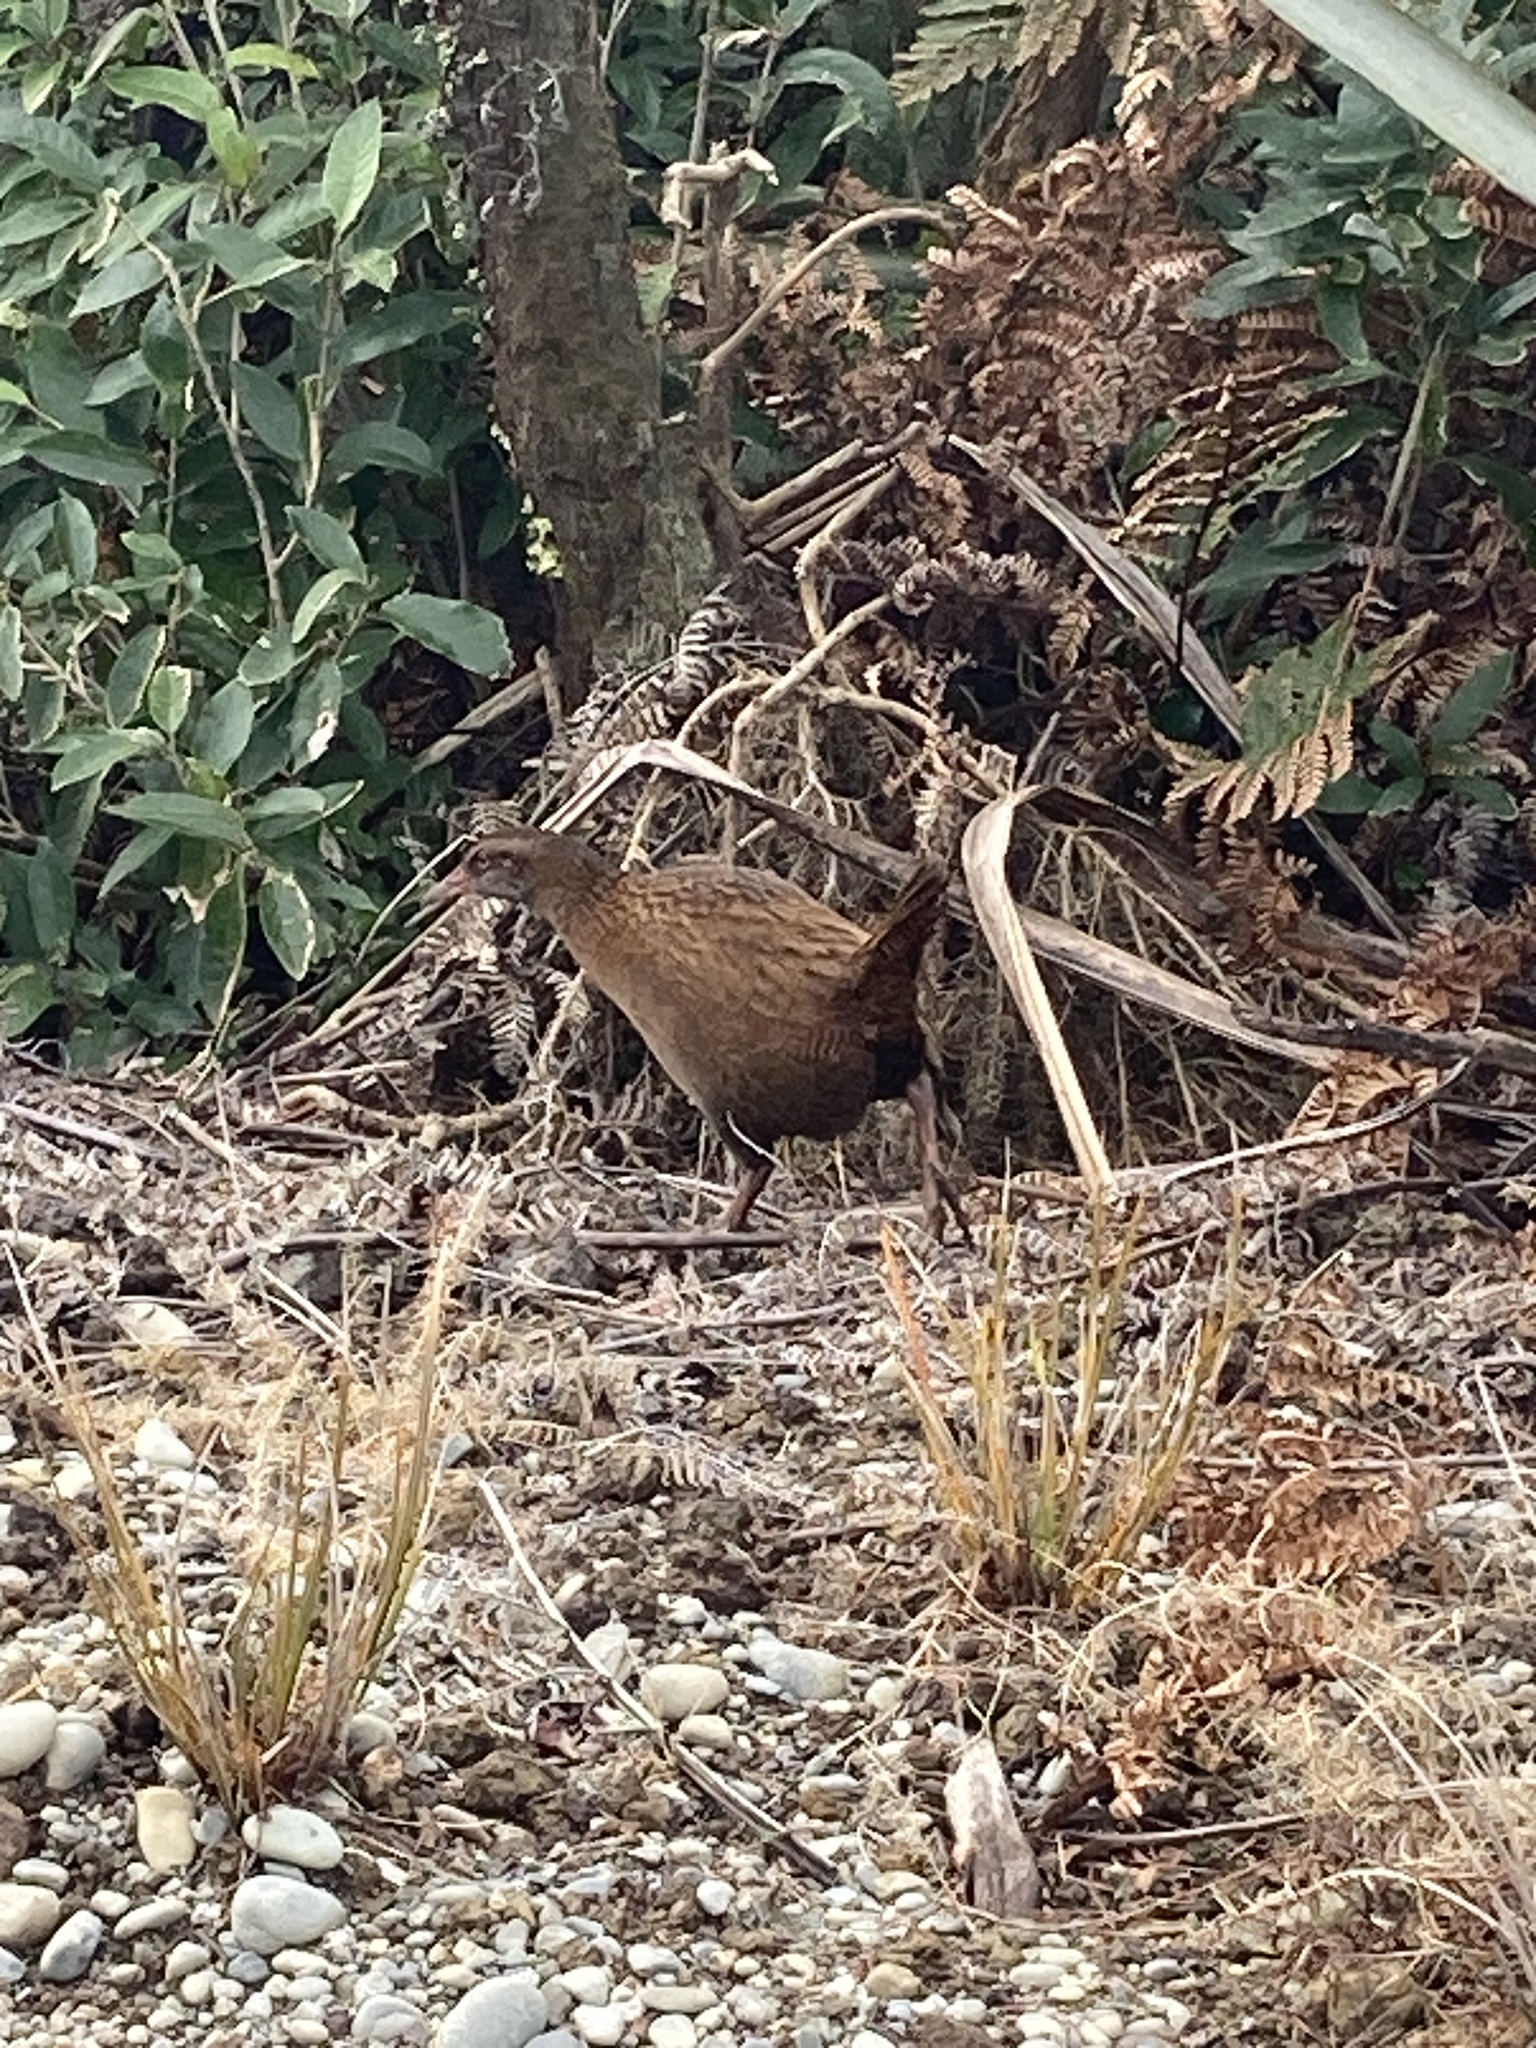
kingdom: Animalia
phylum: Chordata
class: Aves
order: Gruiformes
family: Rallidae
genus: Gallirallus
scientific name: Gallirallus australis
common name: Weka
